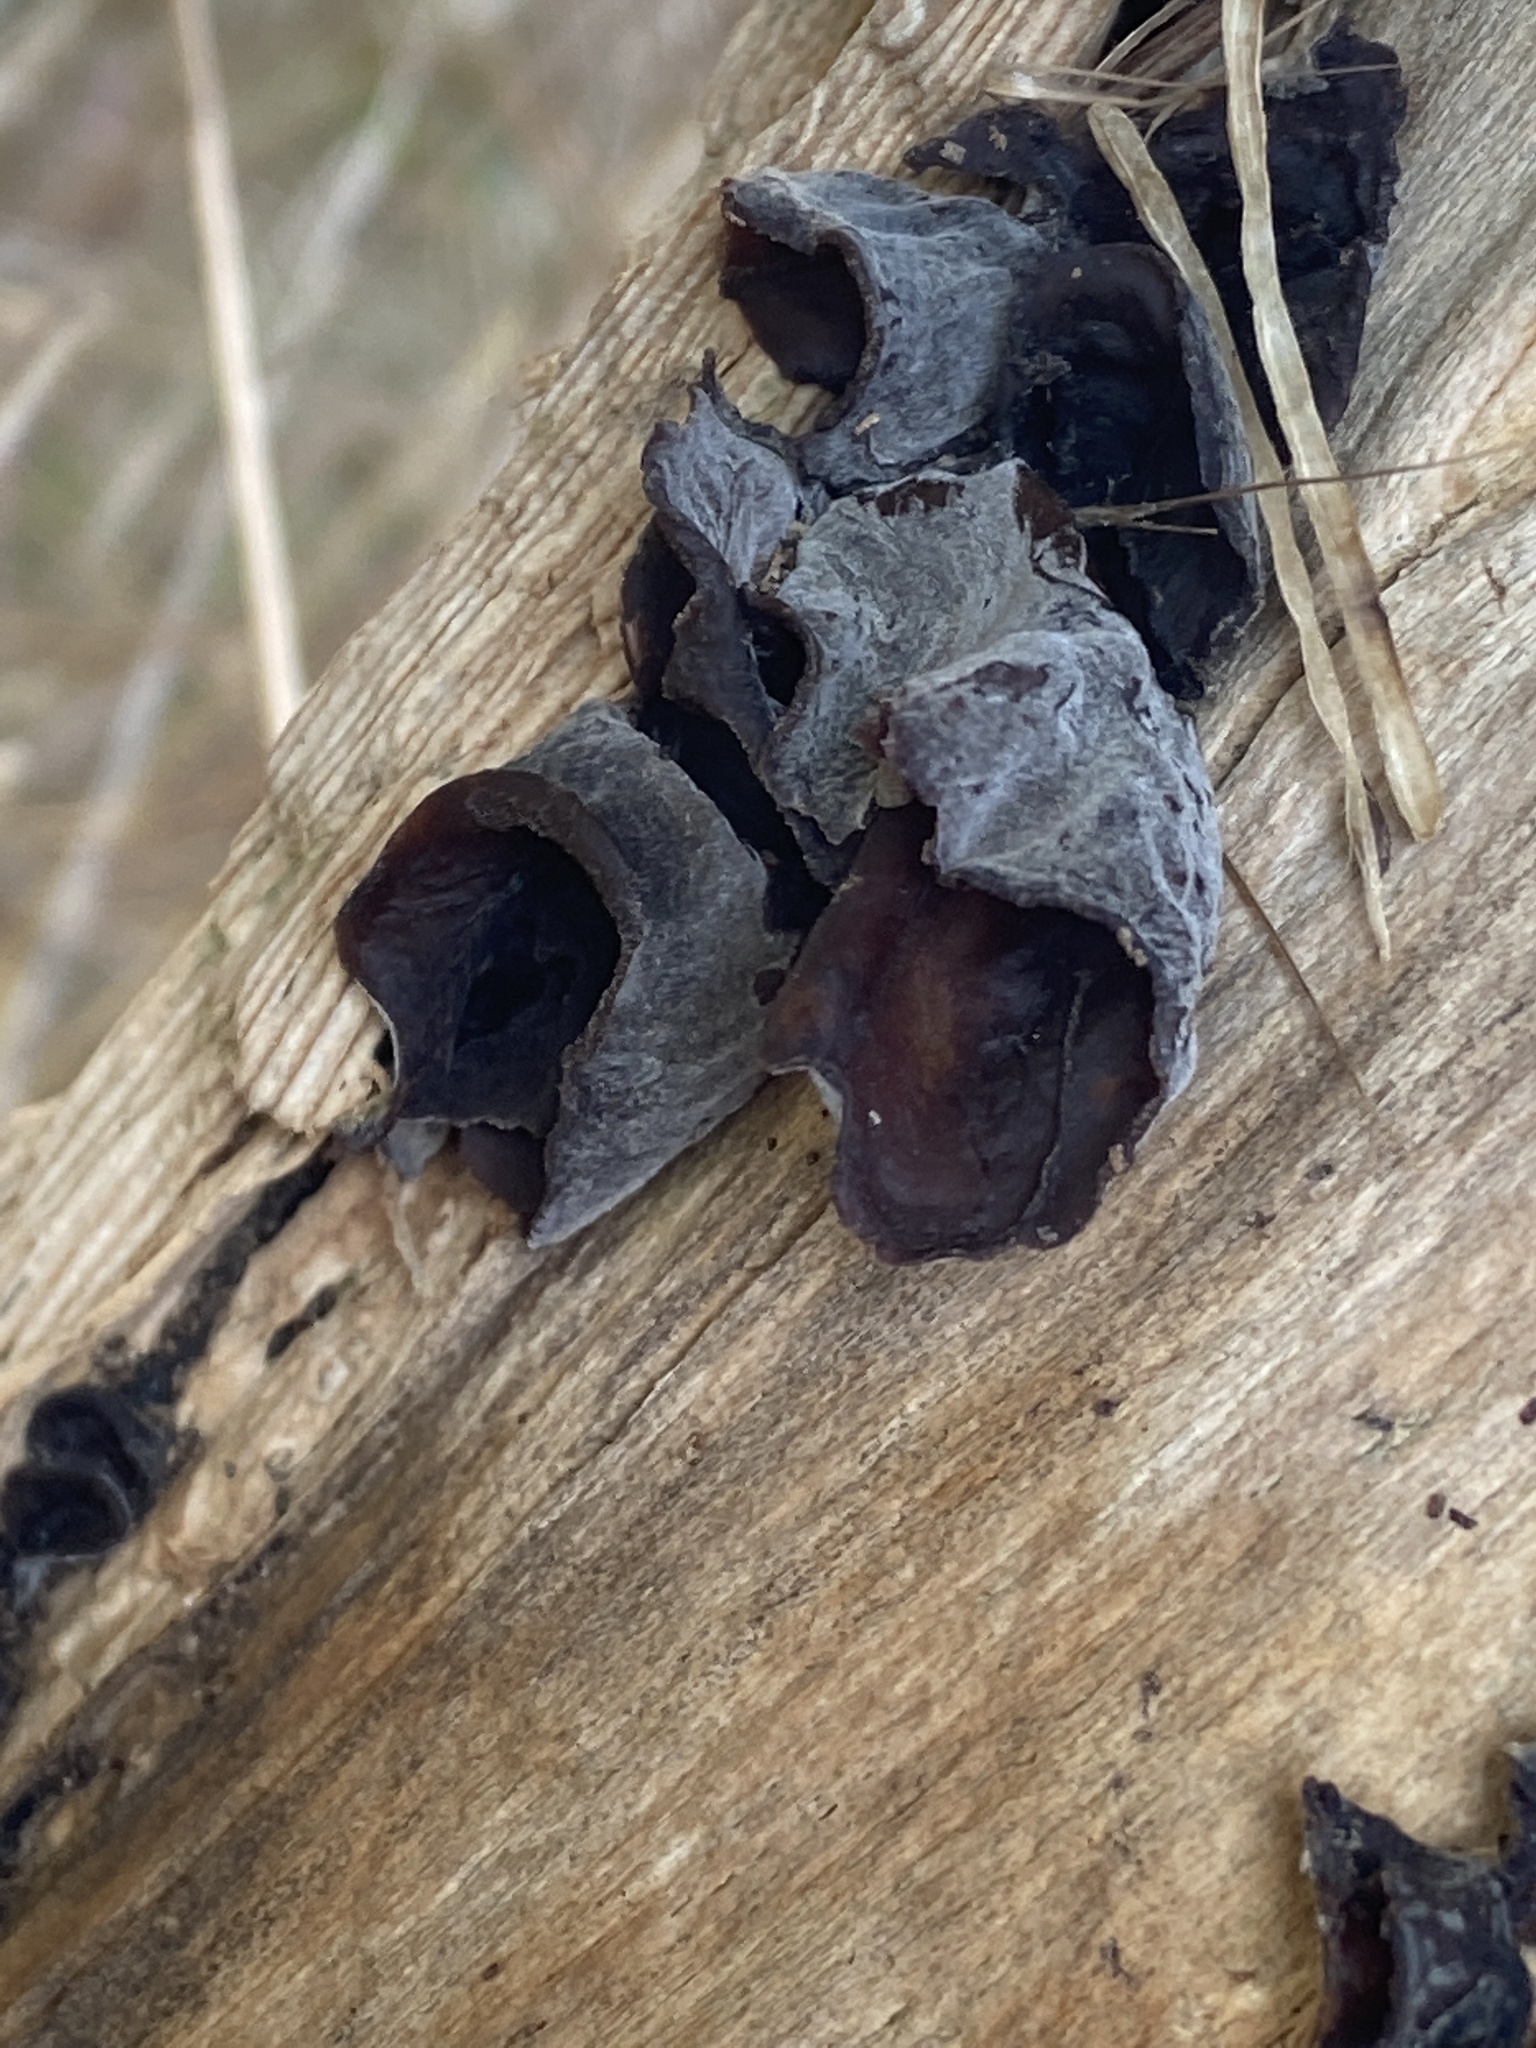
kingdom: Fungi
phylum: Basidiomycota
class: Agaricomycetes
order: Auriculariales
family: Auriculariaceae
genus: Auricularia
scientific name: Auricularia auricula-judae
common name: Jelly ear
